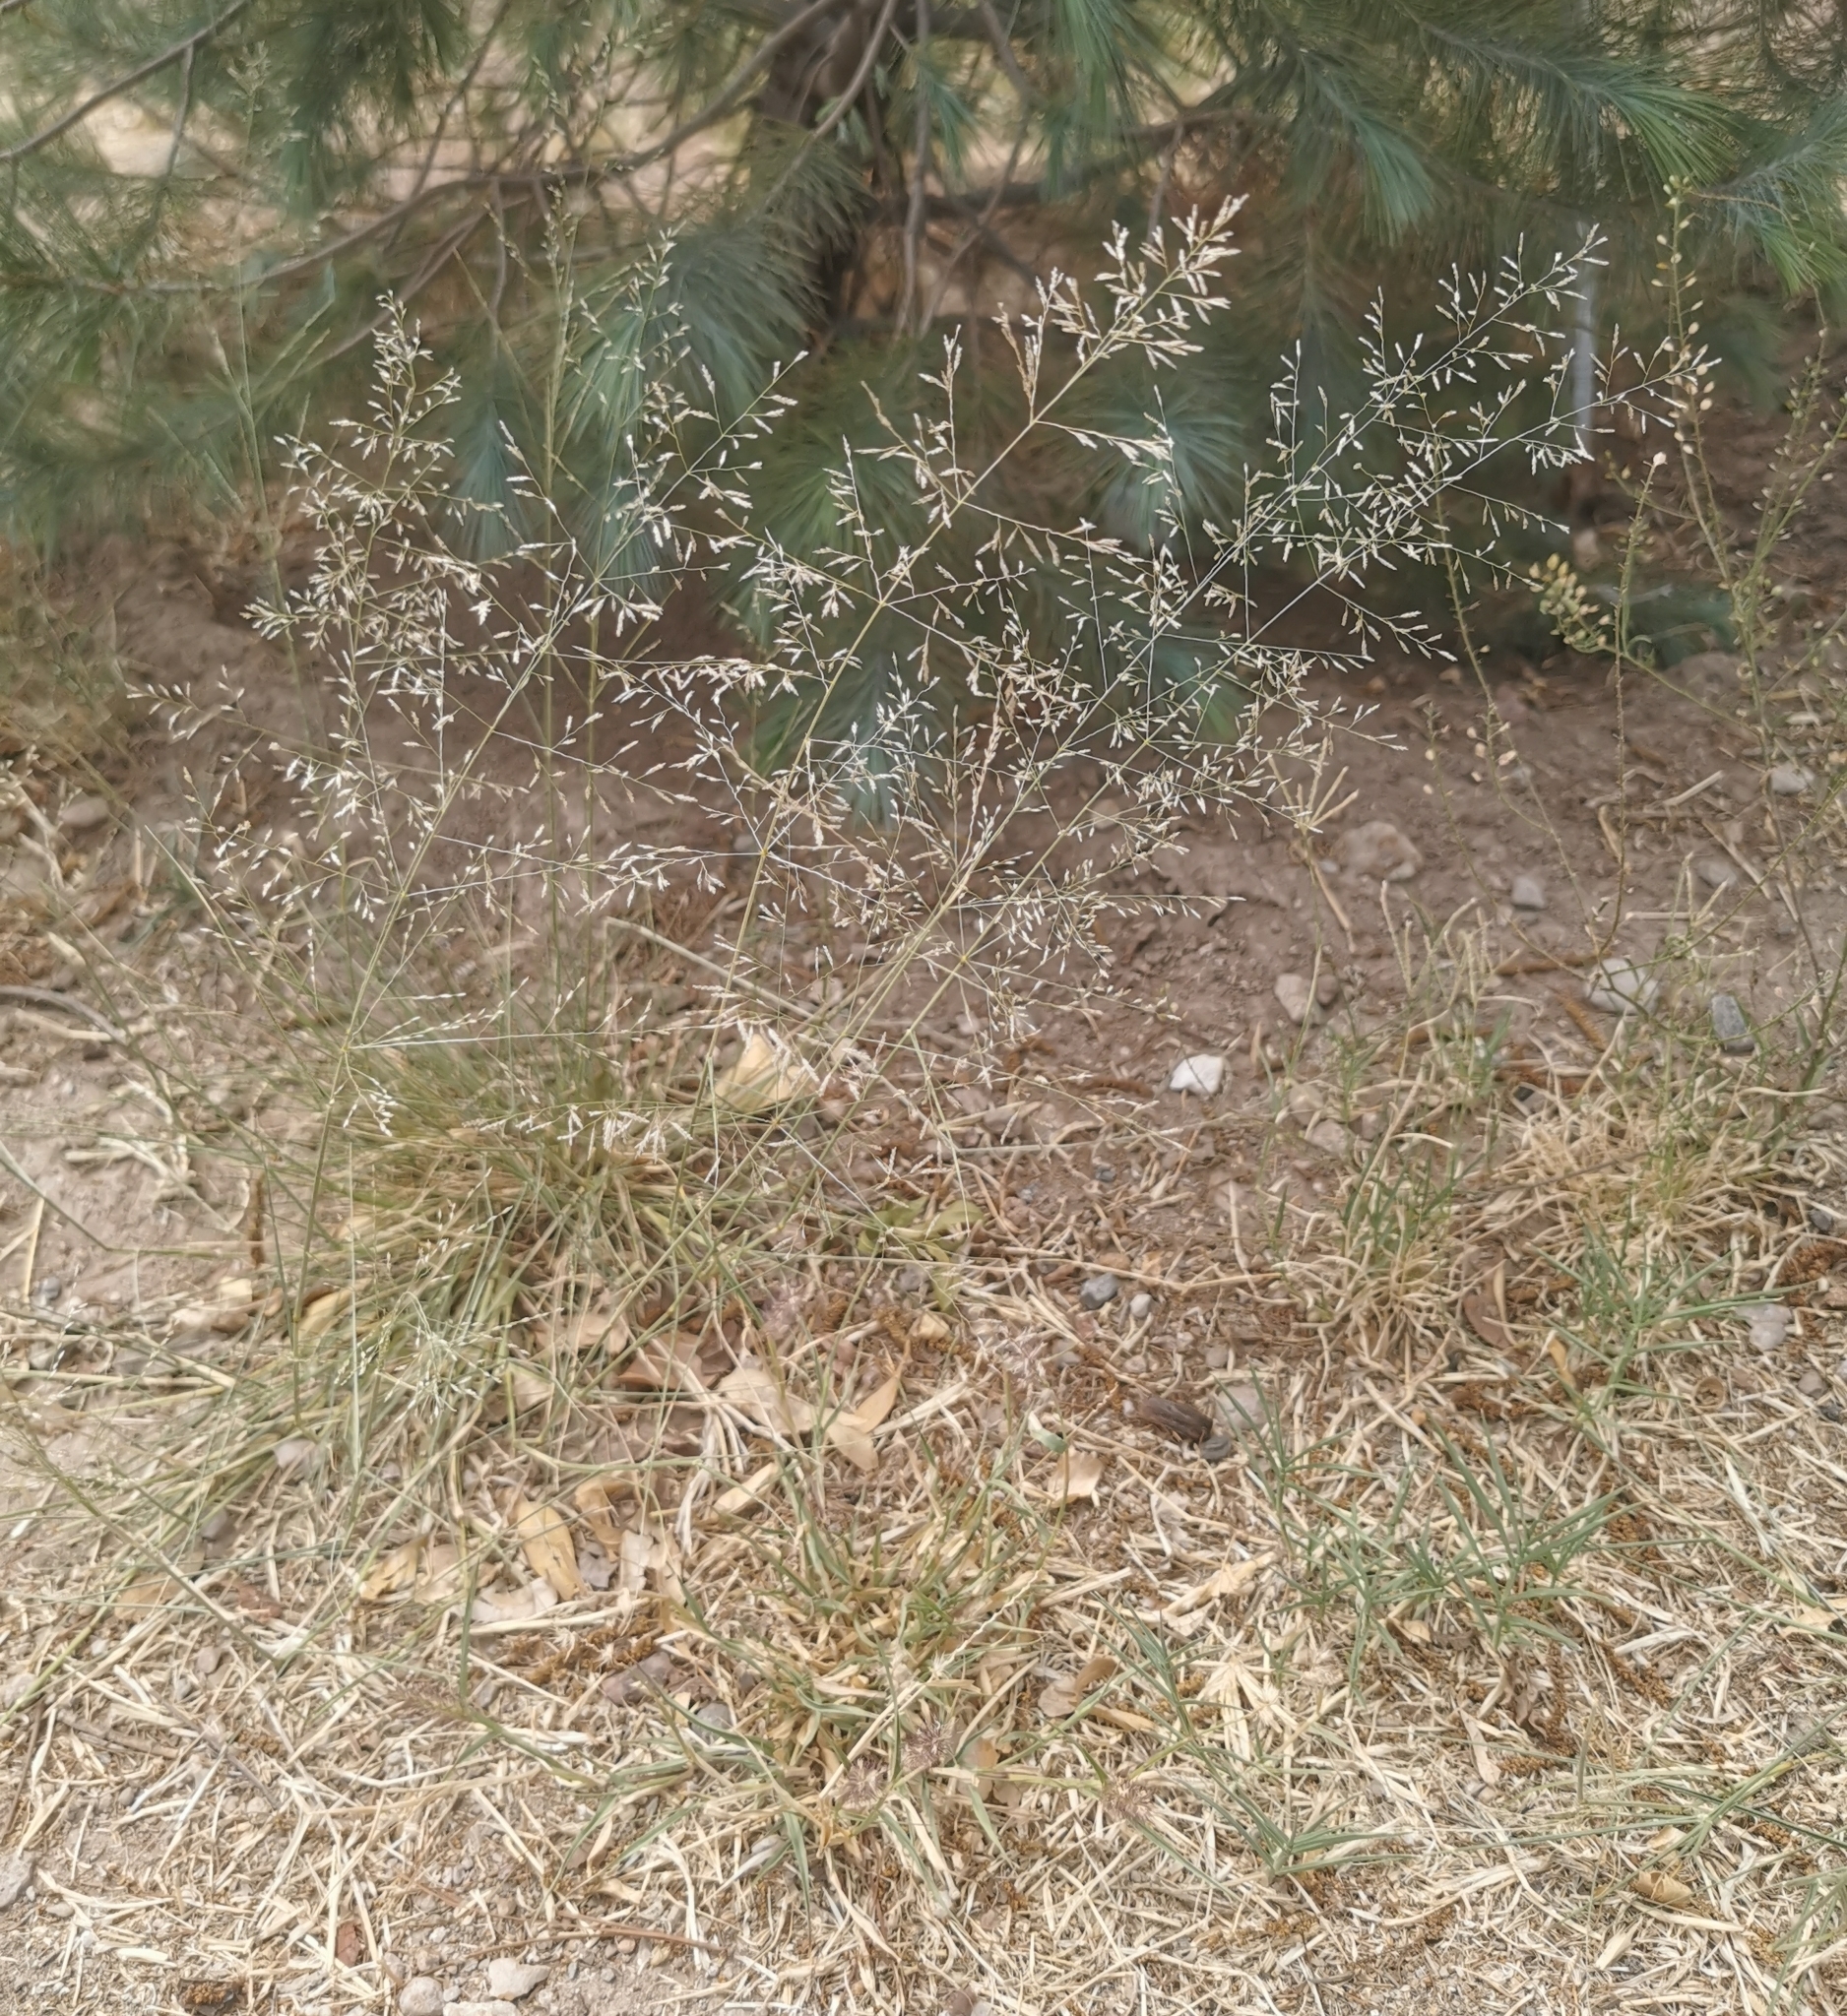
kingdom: Plantae
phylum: Tracheophyta
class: Liliopsida
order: Poales
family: Poaceae
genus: Eragrostis
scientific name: Eragrostis lehmanniana
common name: Lehmann lovegrass
